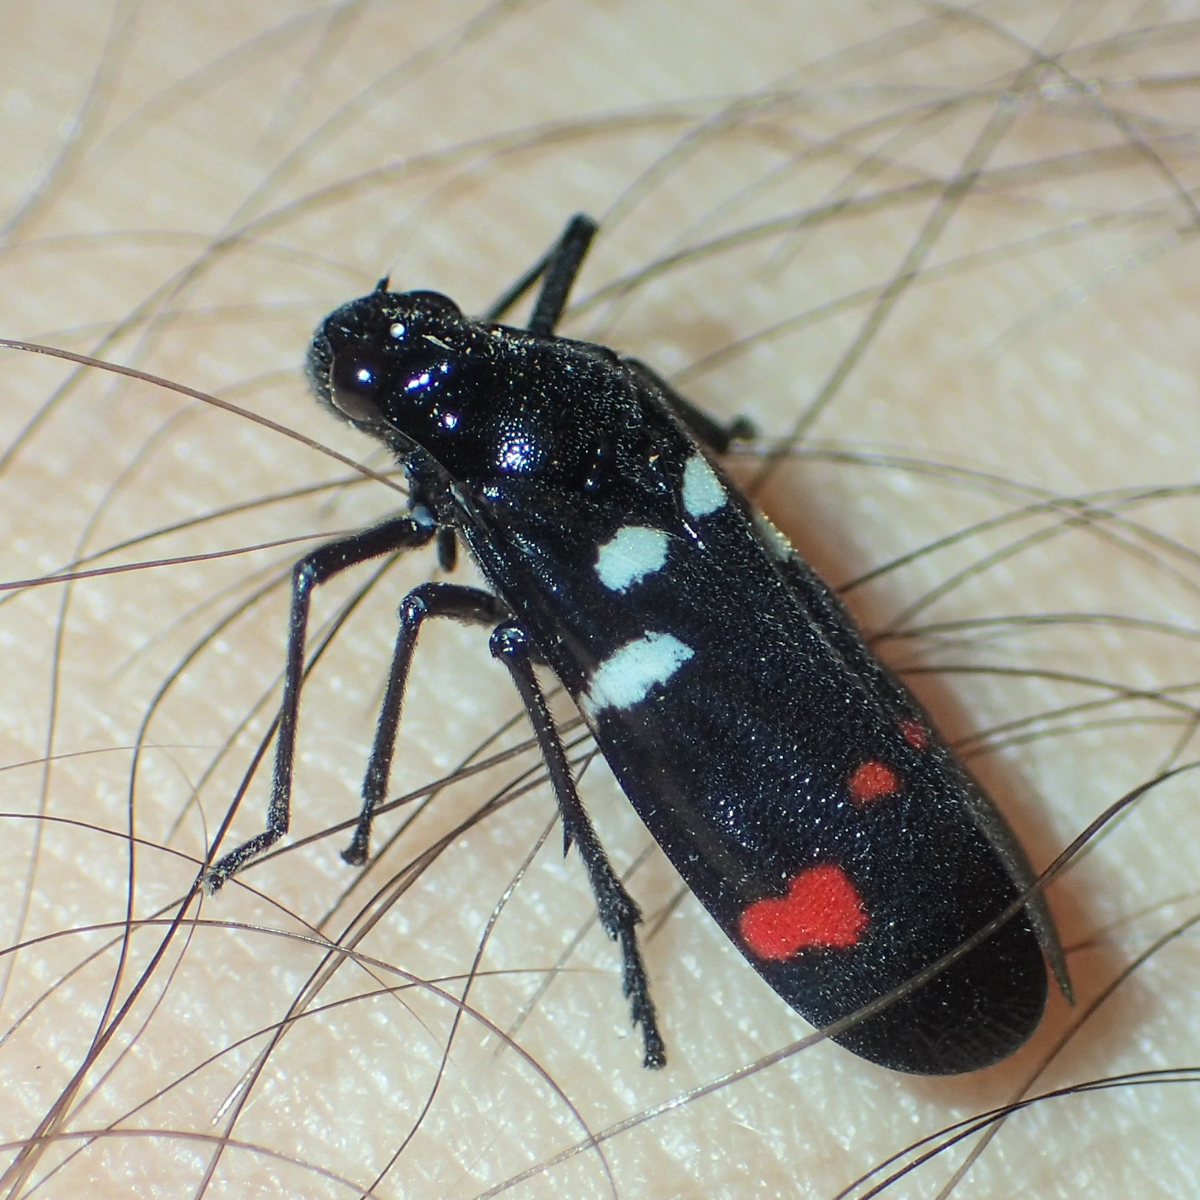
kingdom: Animalia
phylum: Arthropoda
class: Insecta
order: Hemiptera
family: Cercopidae
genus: Callitettix
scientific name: Callitettix versicolor
